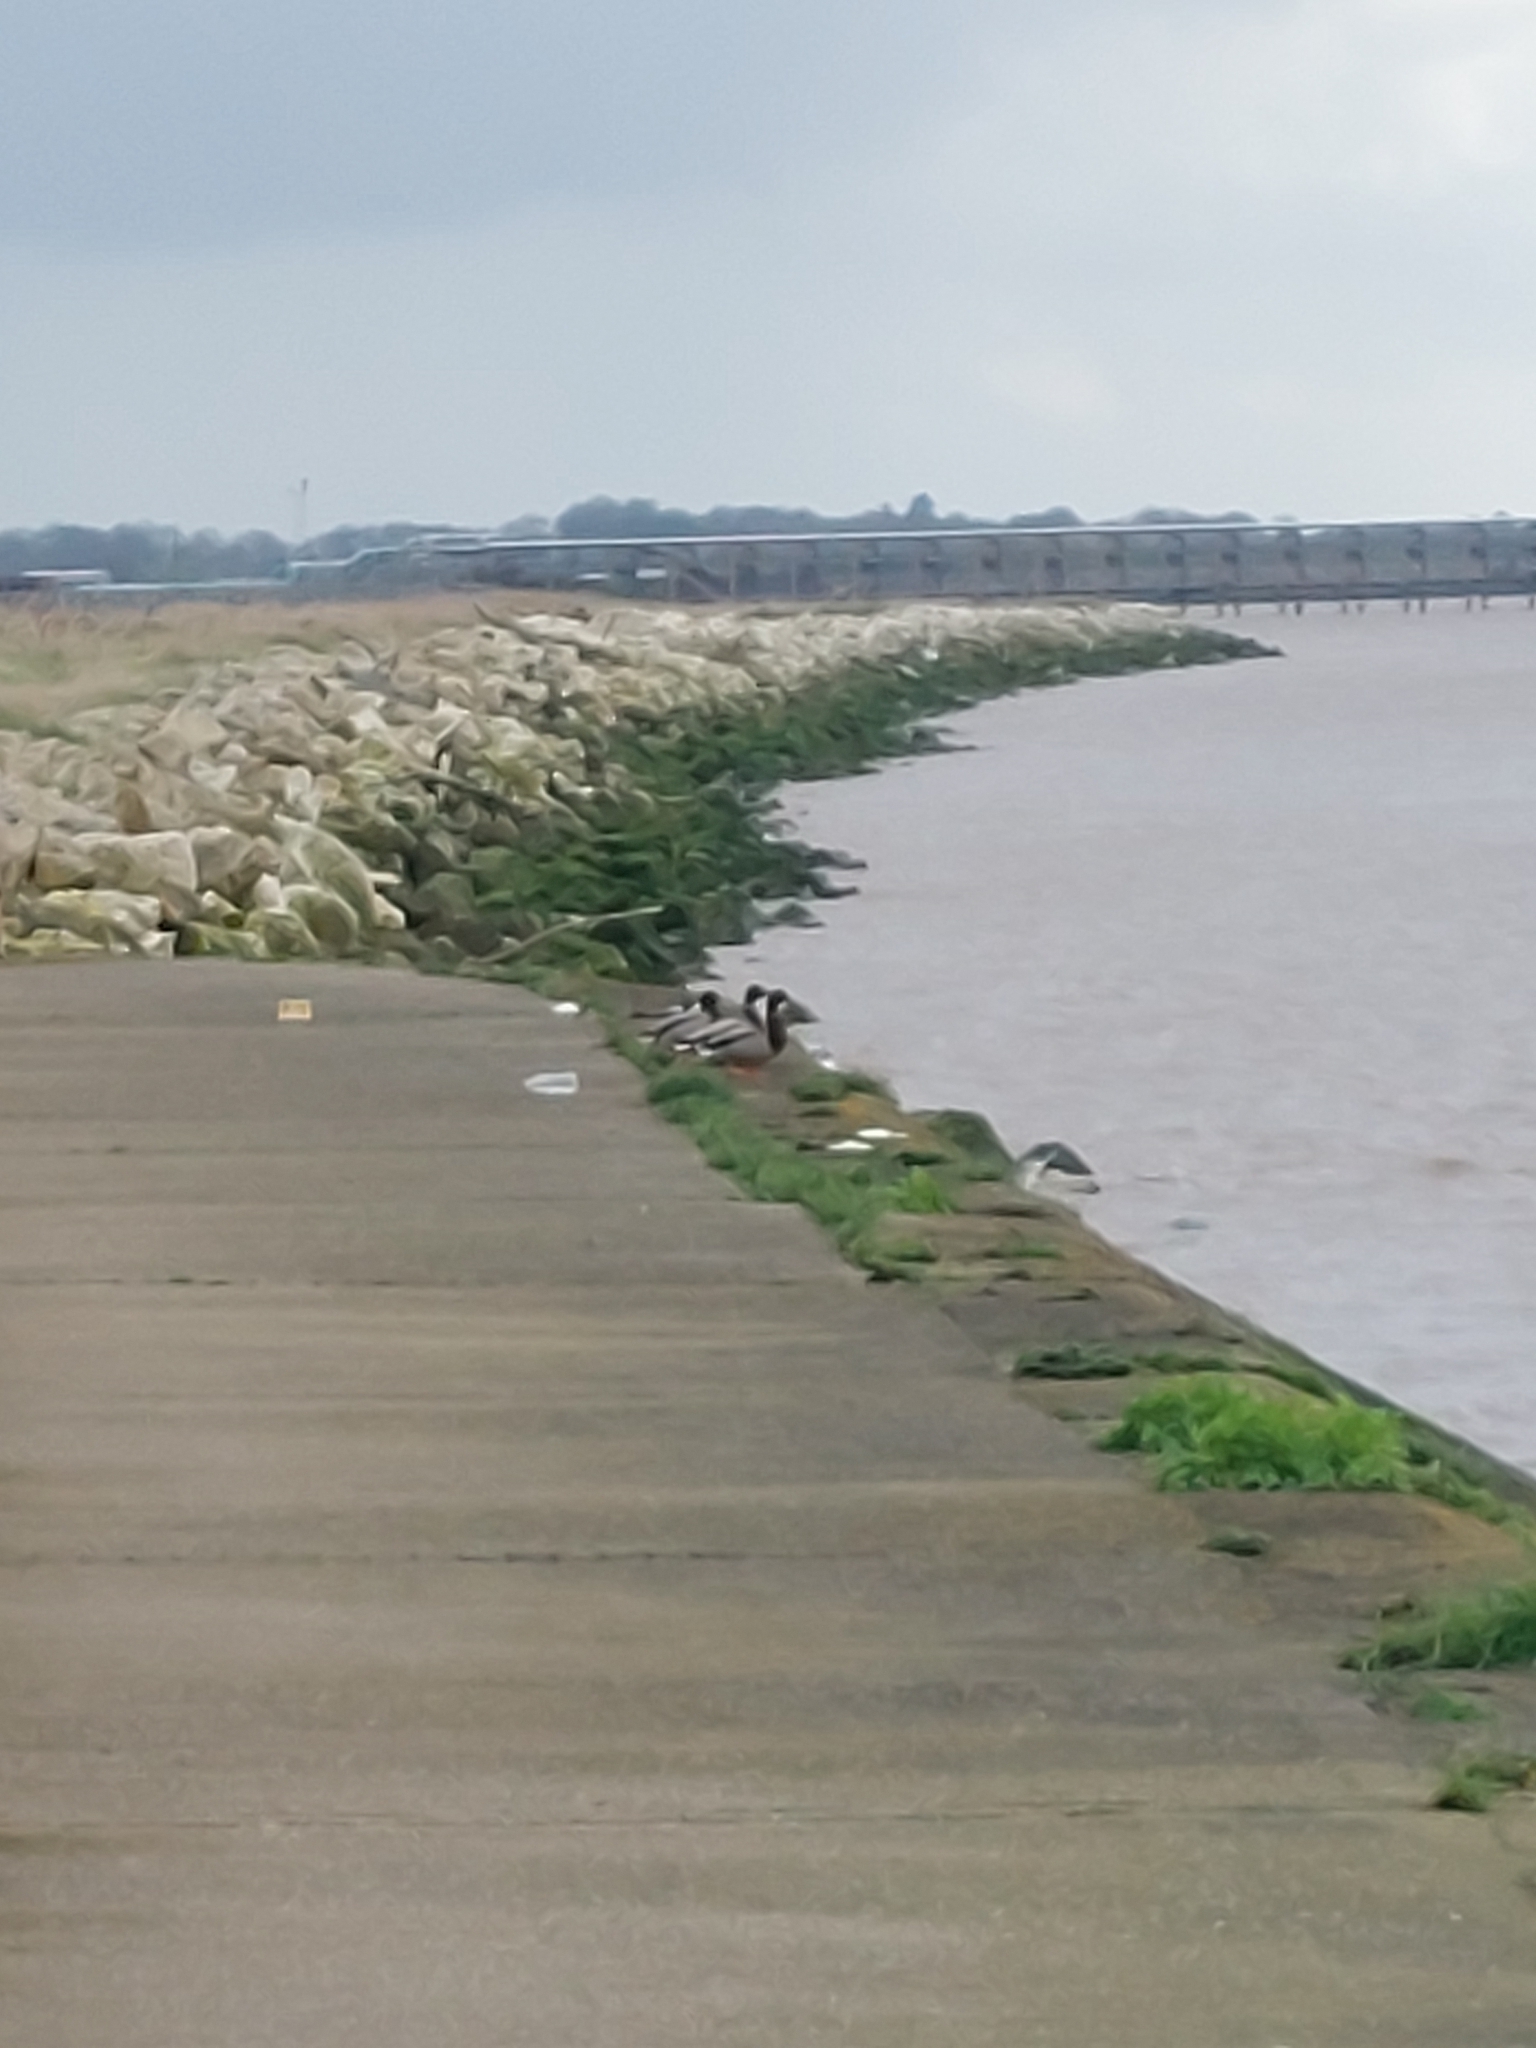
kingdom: Animalia
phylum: Chordata
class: Aves
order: Anseriformes
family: Anatidae
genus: Anas
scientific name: Anas platyrhynchos
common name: Mallard
